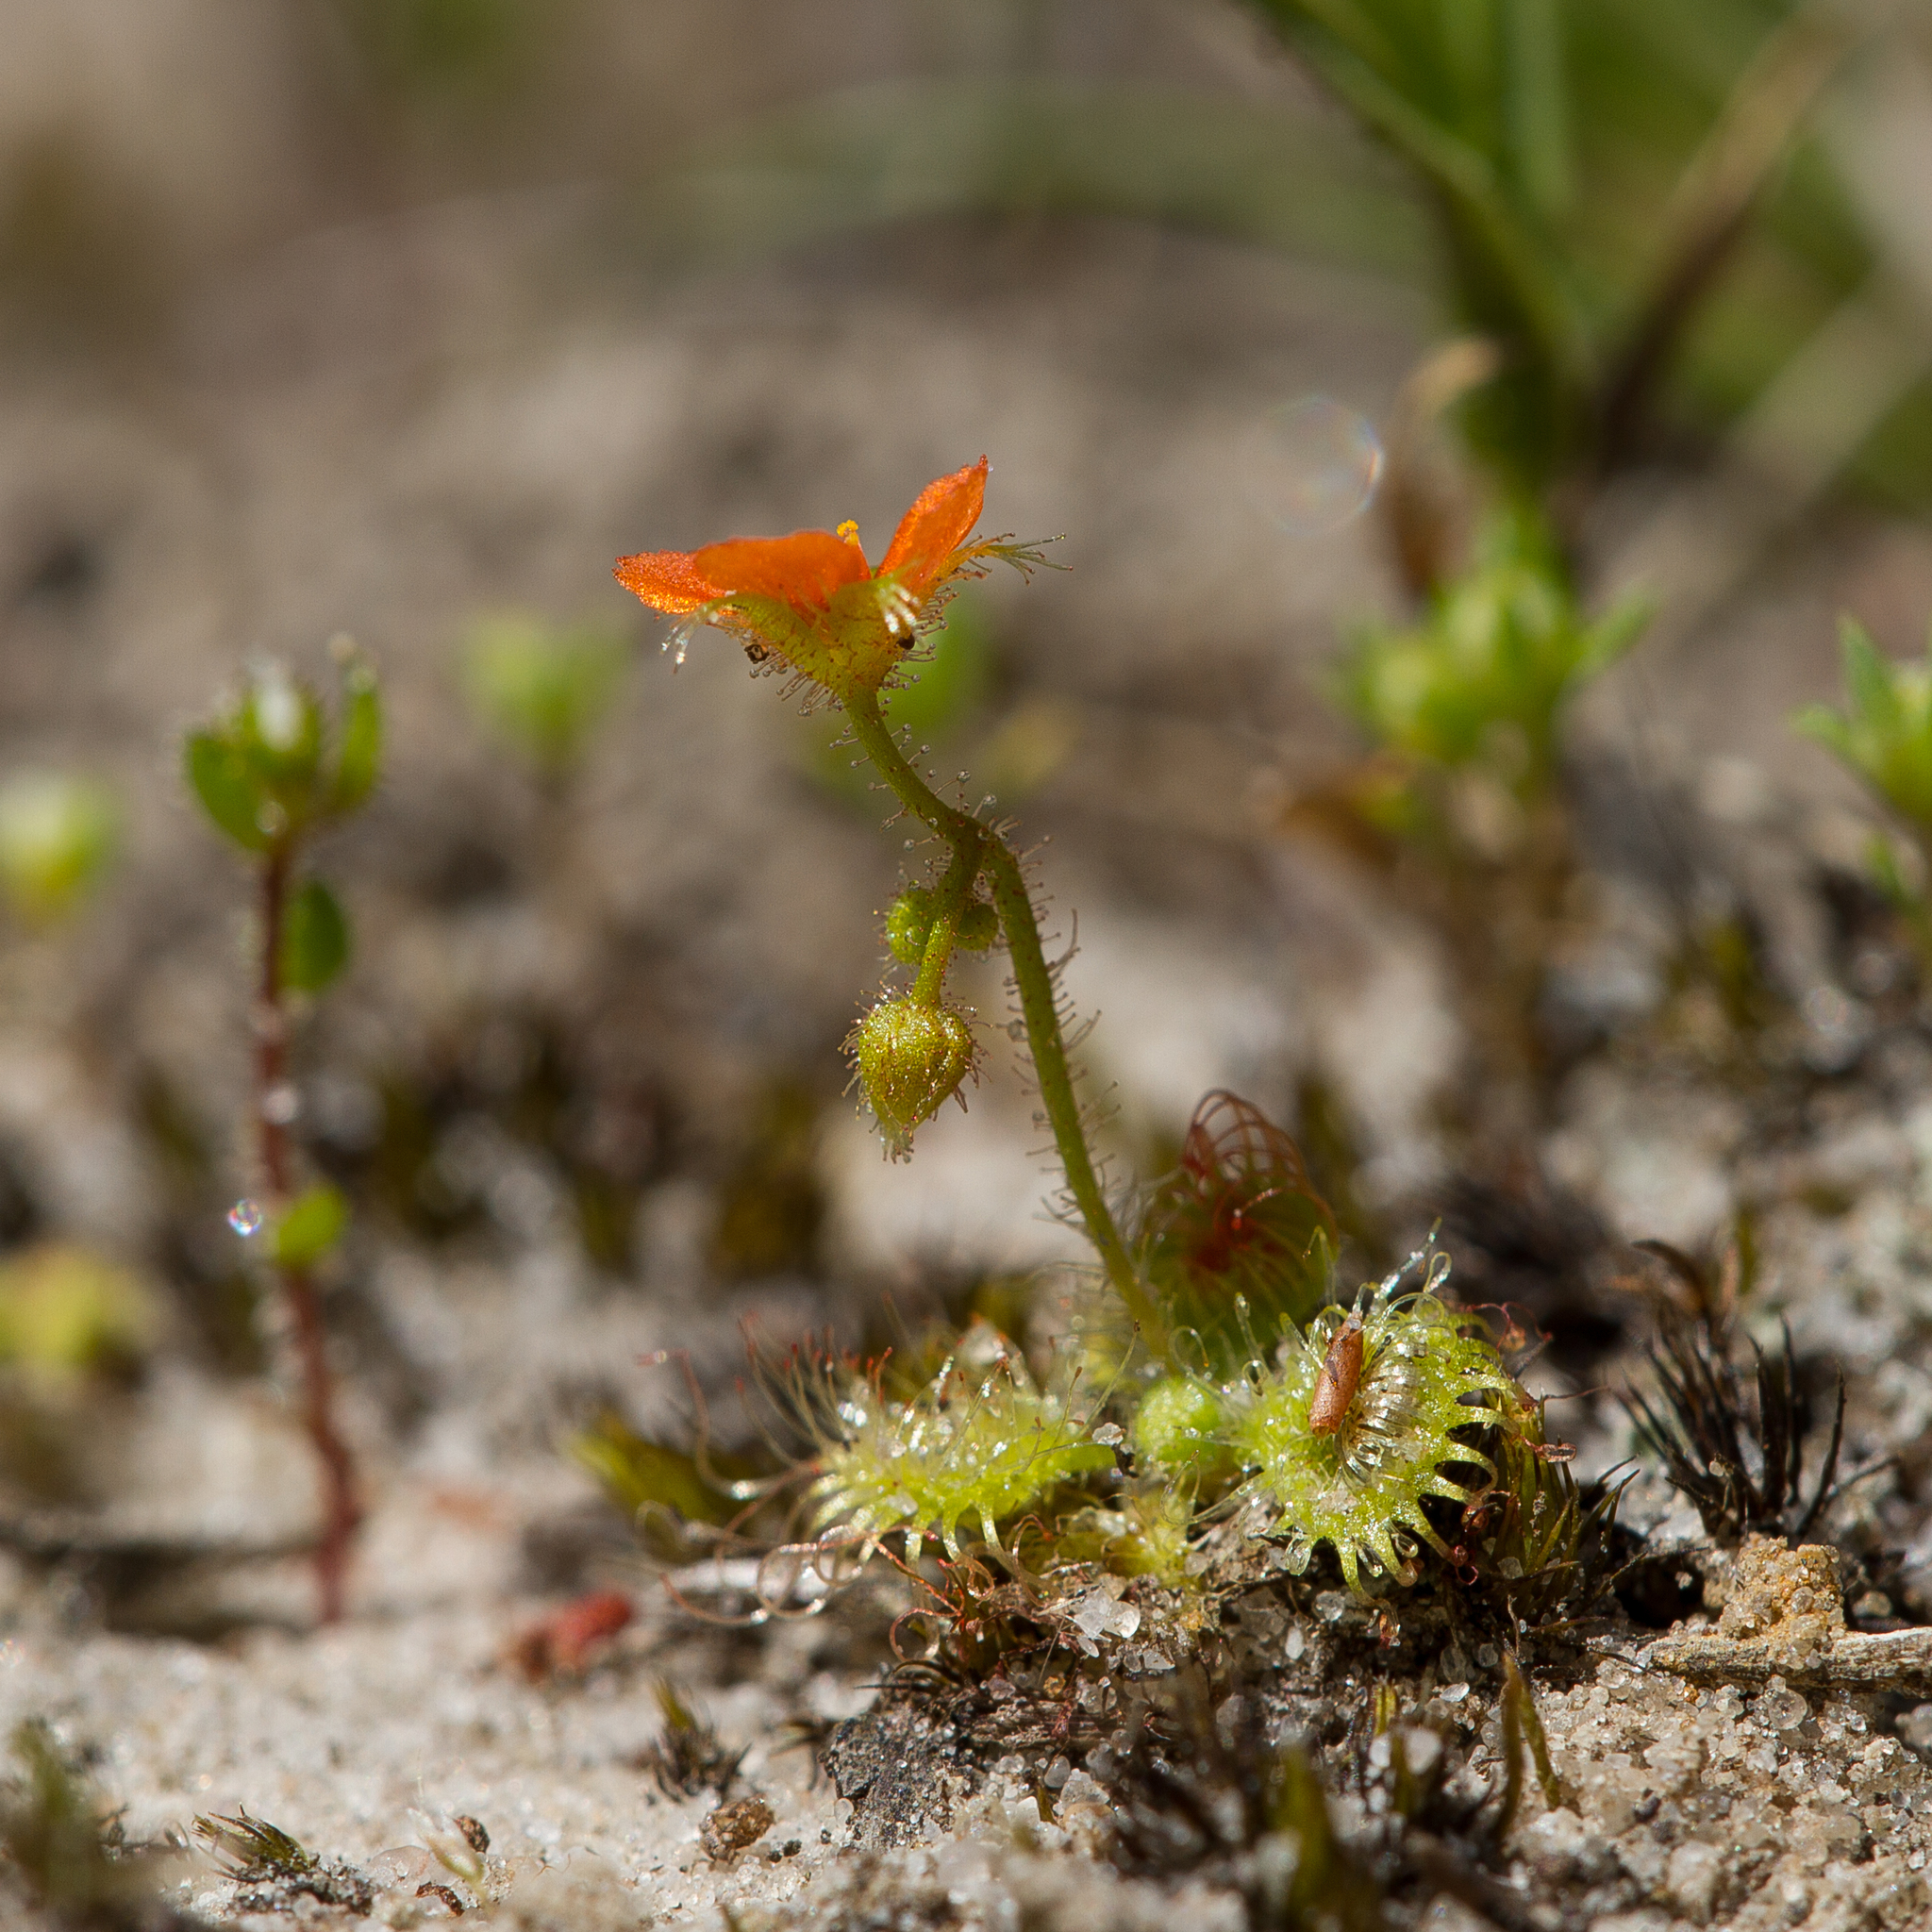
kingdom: Plantae
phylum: Tracheophyta
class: Magnoliopsida
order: Caryophyllales
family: Droseraceae
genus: Drosera
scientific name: Drosera glanduligera
